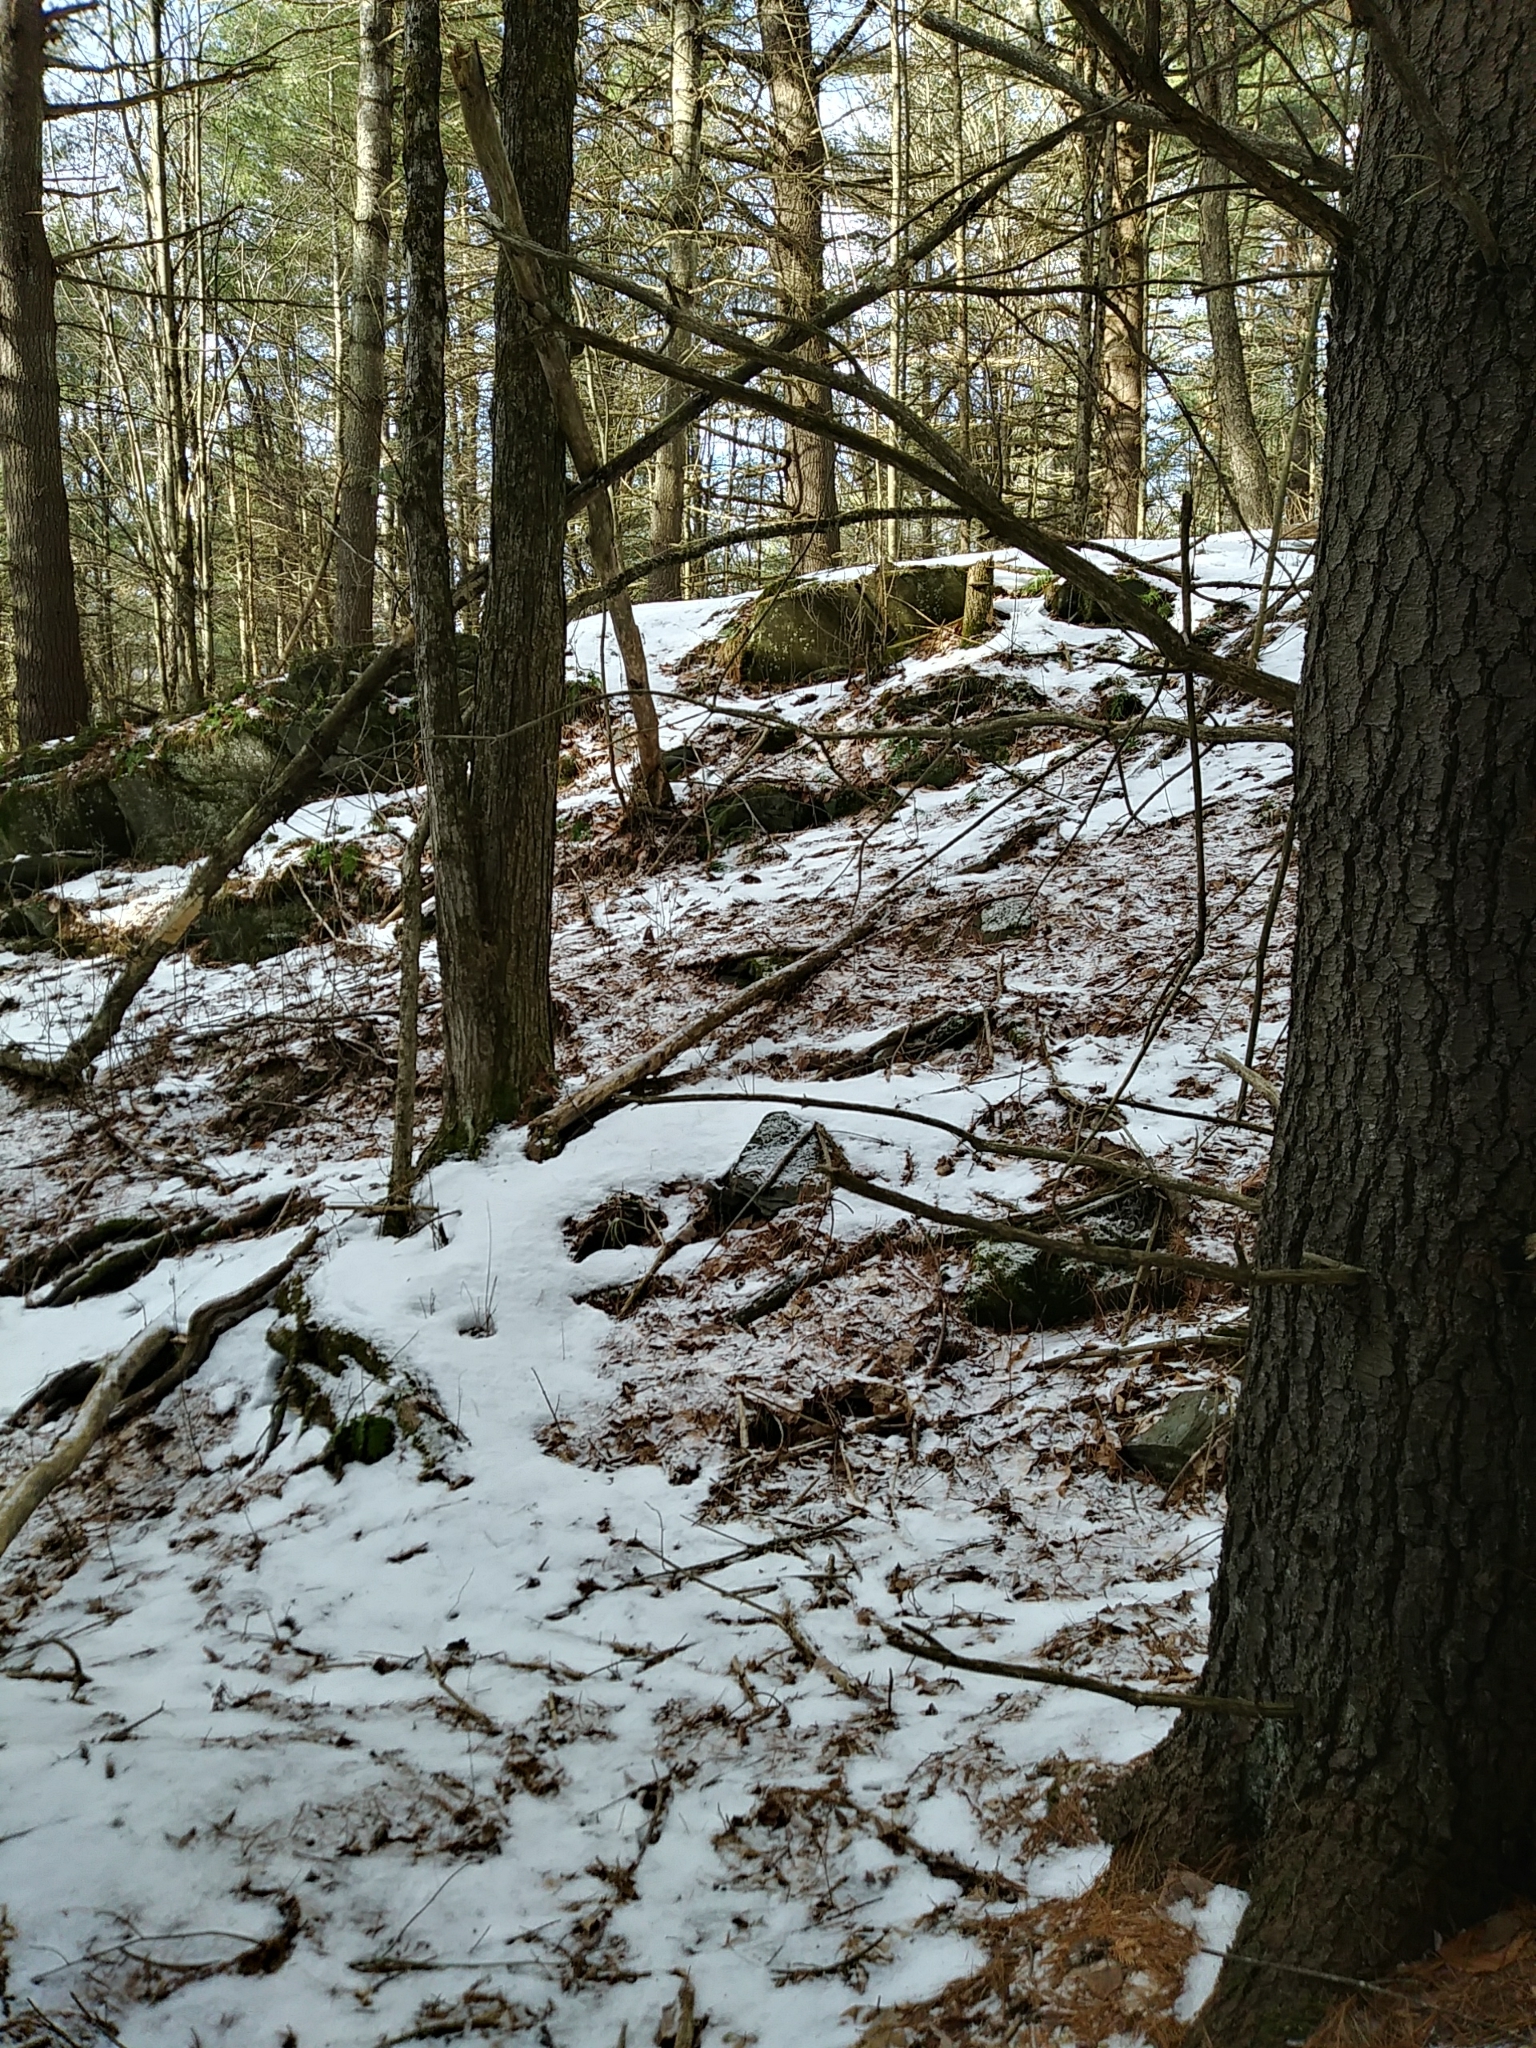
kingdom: Plantae
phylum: Tracheophyta
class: Pinopsida
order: Pinales
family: Cupressaceae
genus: Thuja
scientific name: Thuja occidentalis
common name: Northern white-cedar
